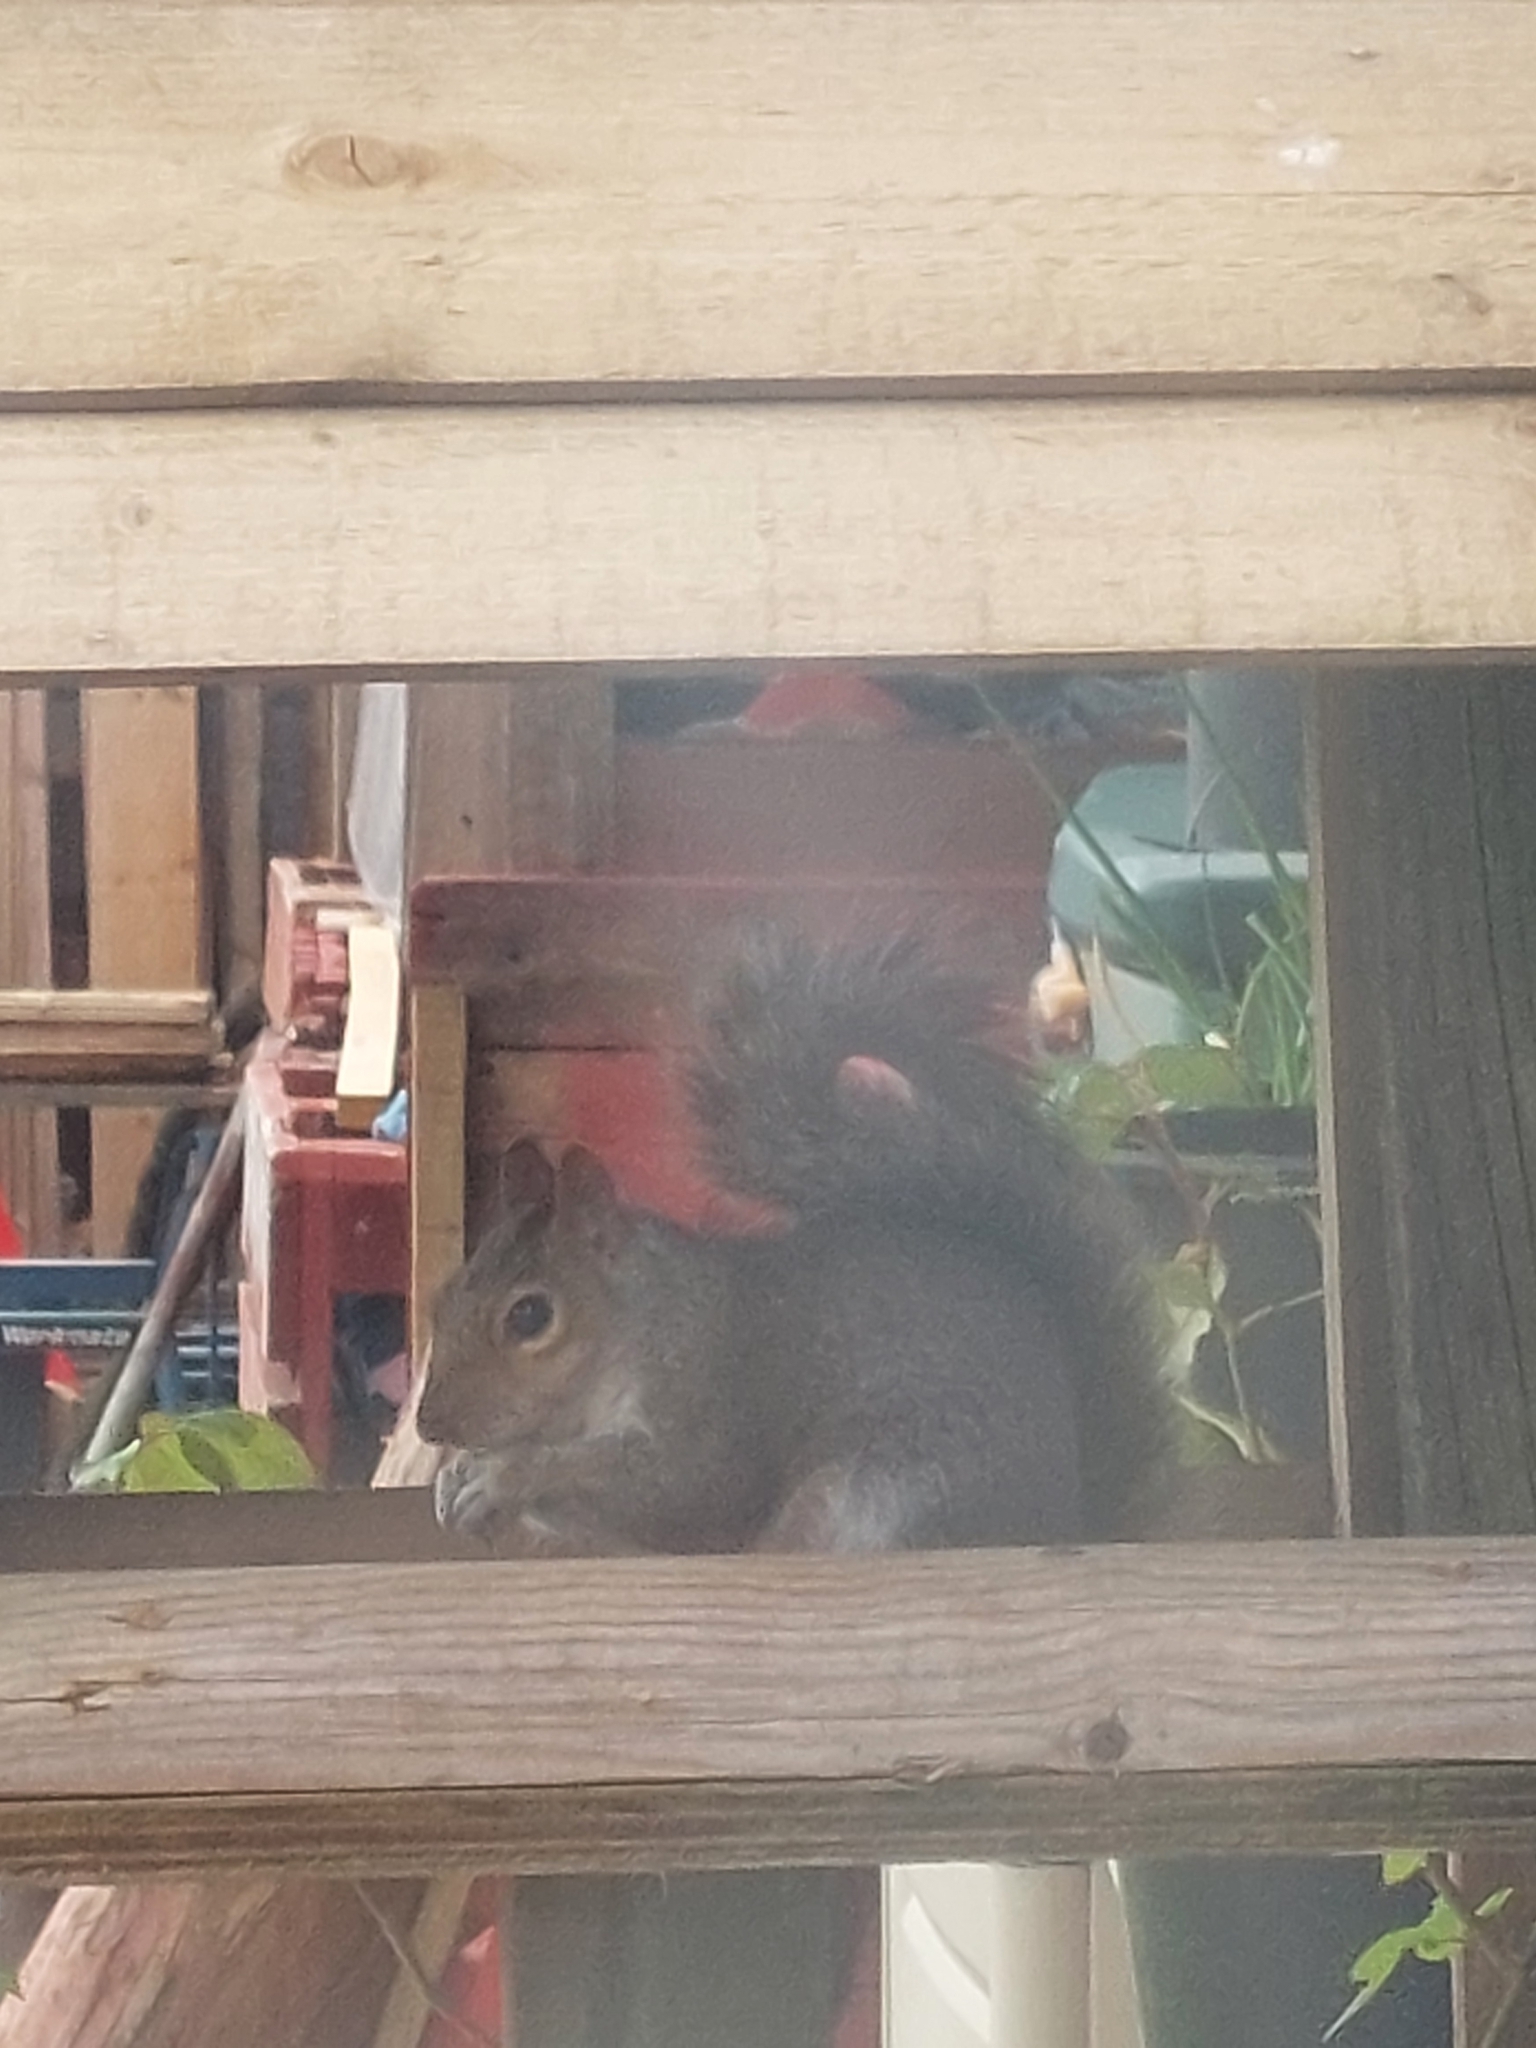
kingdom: Animalia
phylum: Chordata
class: Mammalia
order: Rodentia
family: Sciuridae
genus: Sciurus
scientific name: Sciurus carolinensis
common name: Eastern gray squirrel
